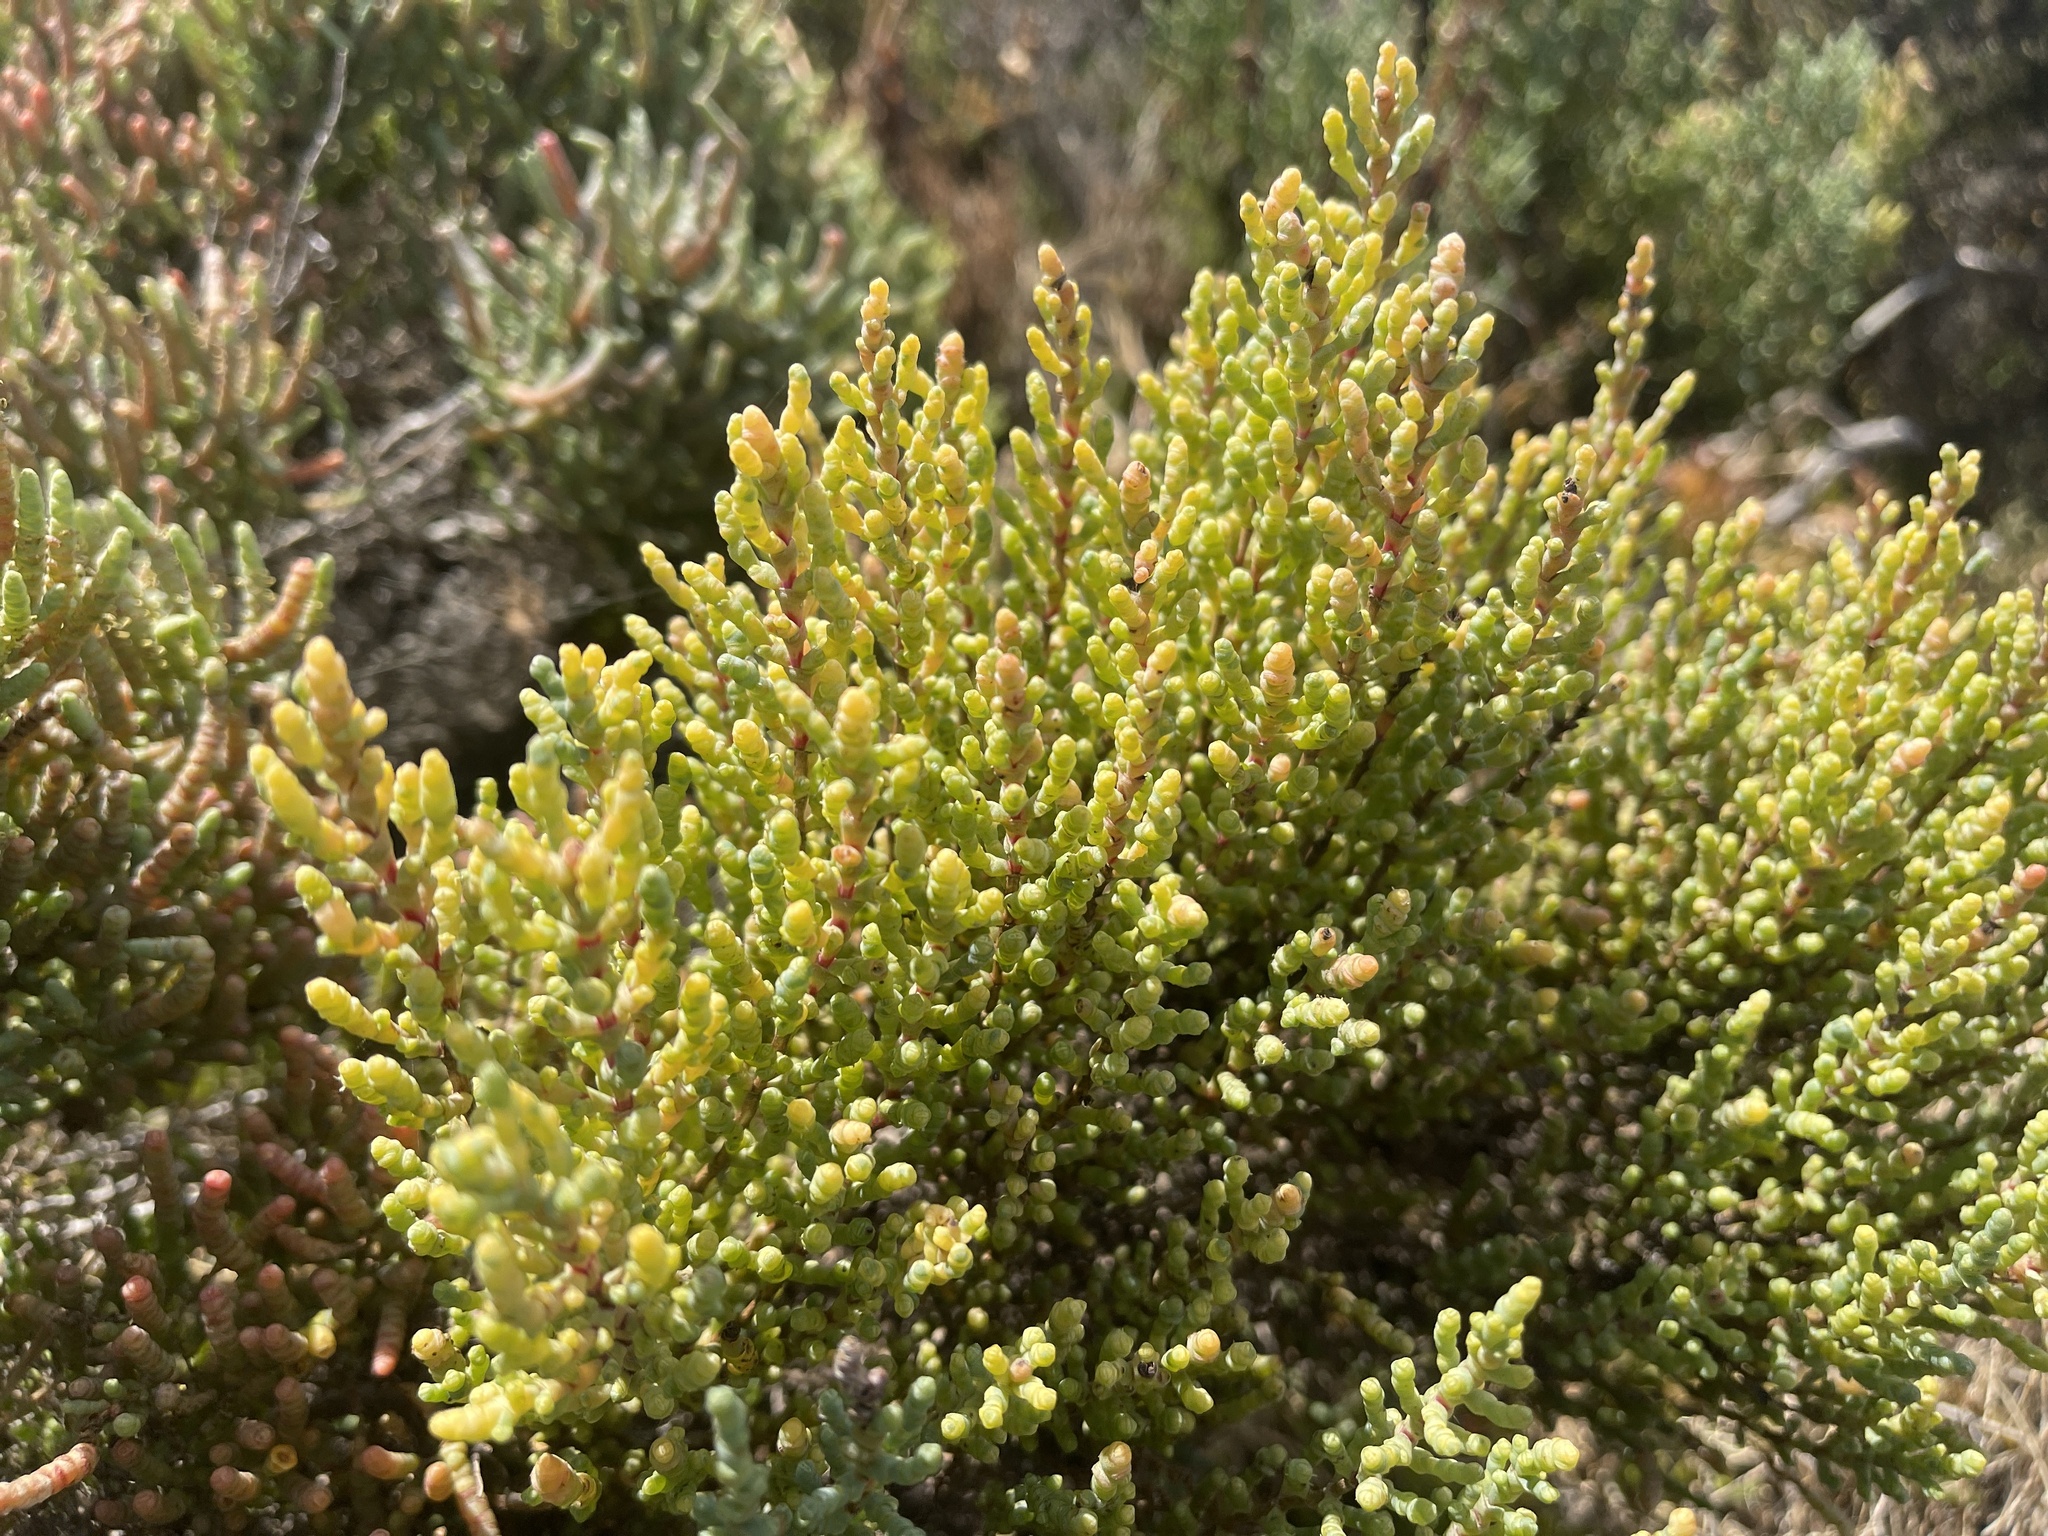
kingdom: Plantae
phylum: Tracheophyta
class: Magnoliopsida
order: Caryophyllales
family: Amaranthaceae
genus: Tecticornia
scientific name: Tecticornia arbuscula
